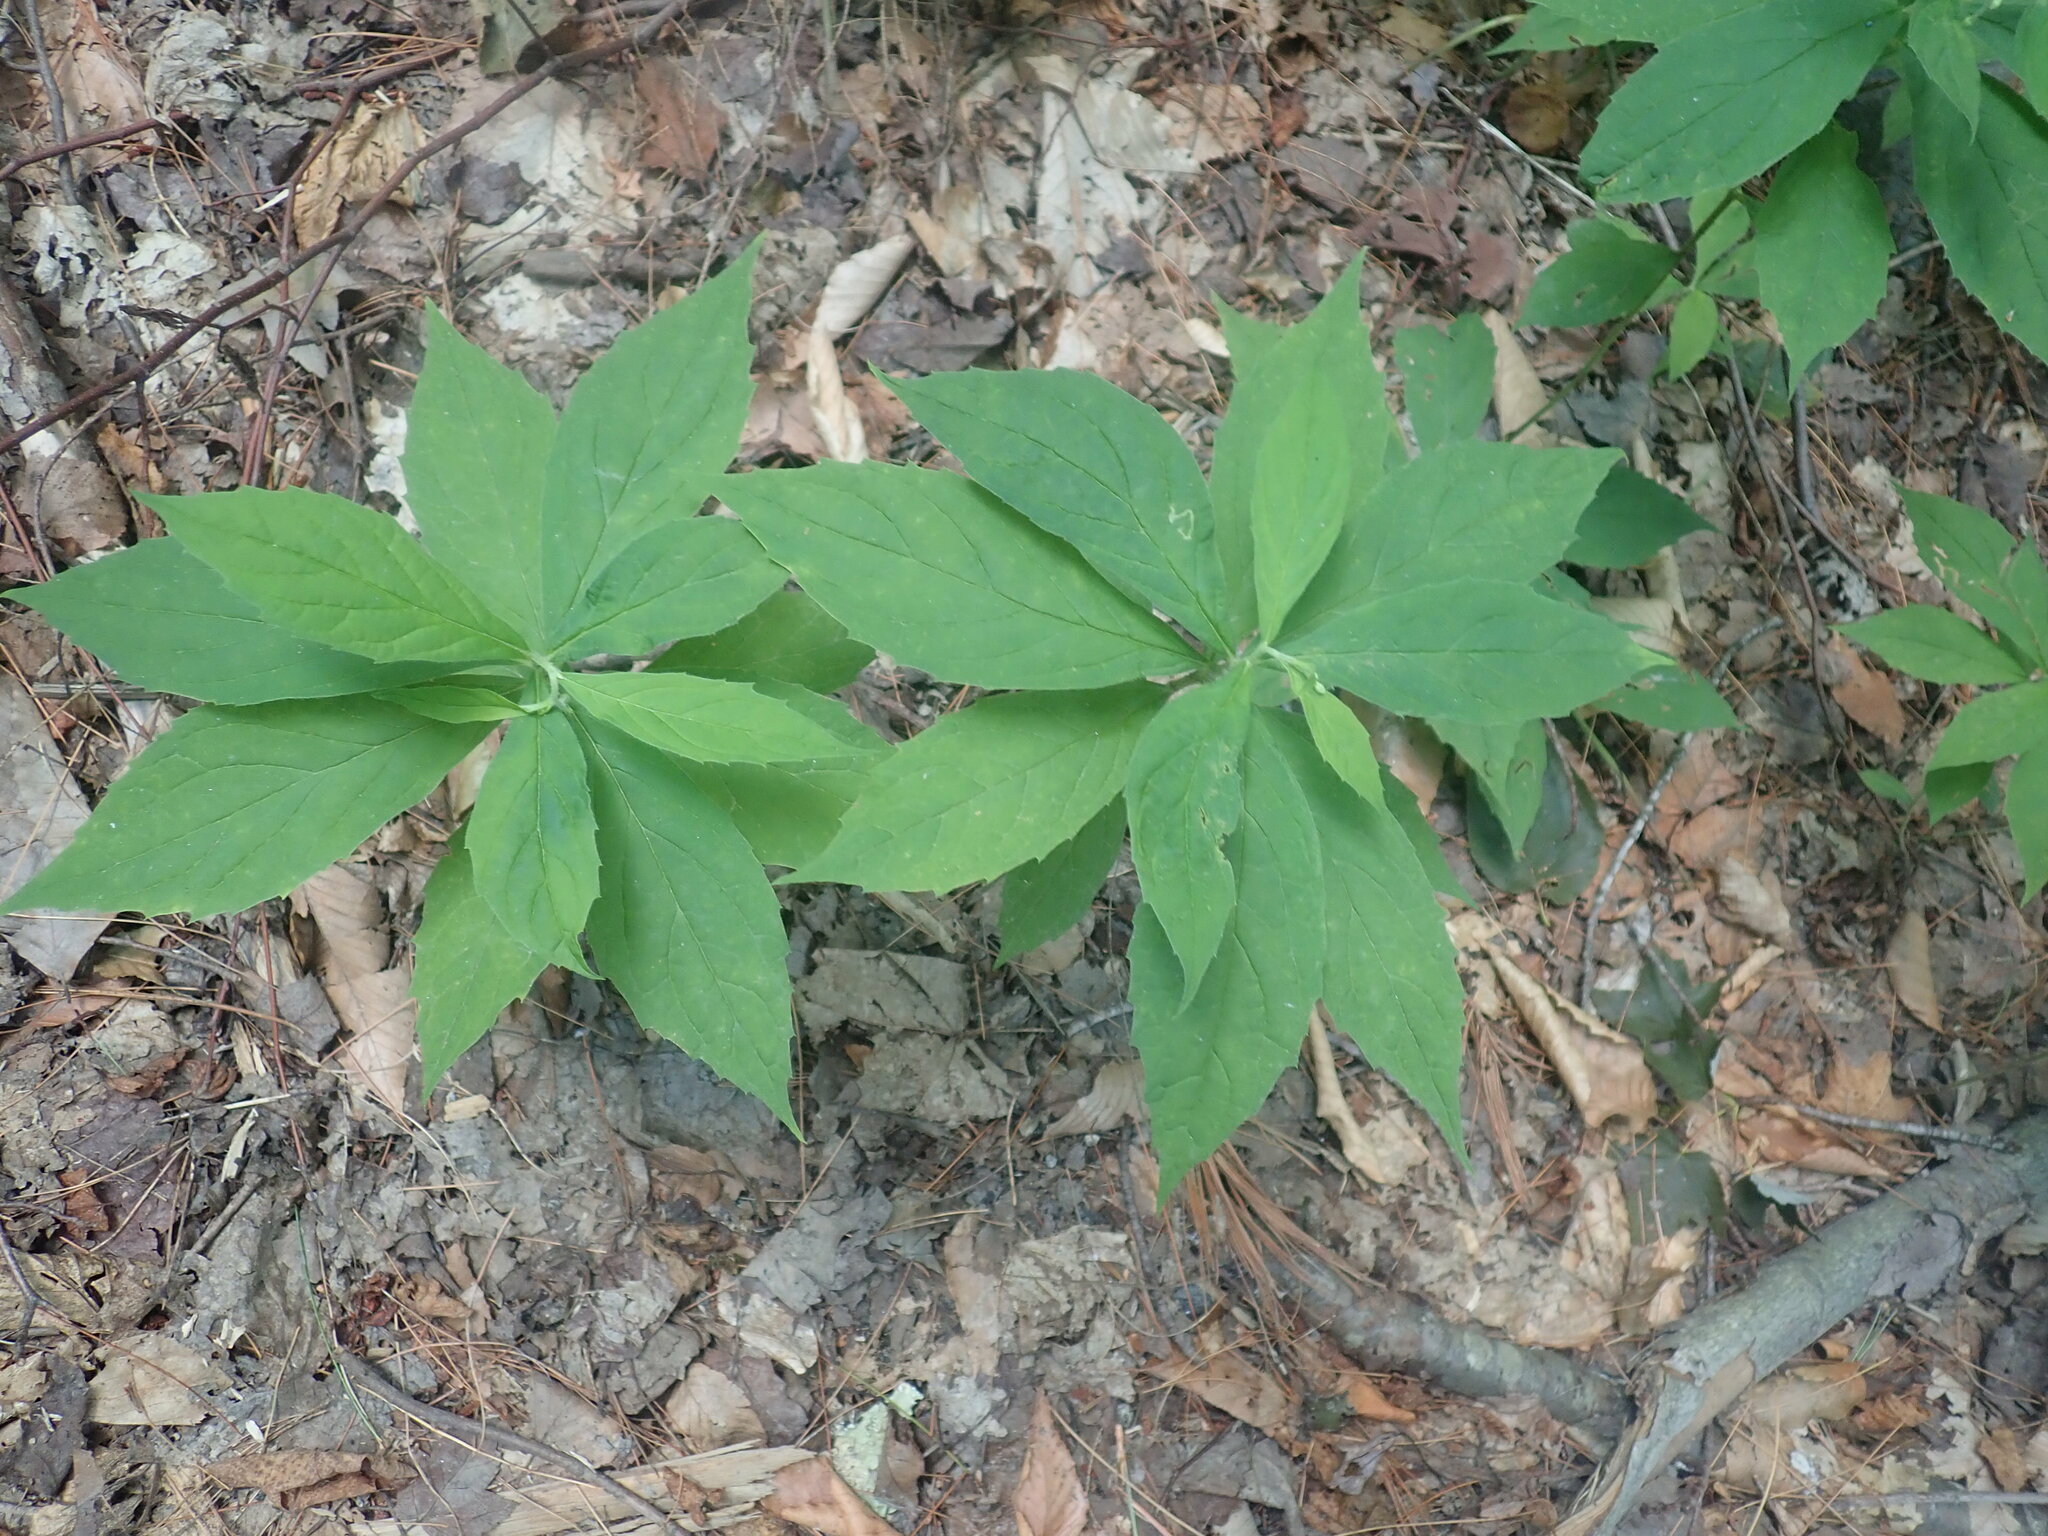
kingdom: Plantae
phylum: Tracheophyta
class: Magnoliopsida
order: Asterales
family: Asteraceae
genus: Oclemena
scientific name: Oclemena acuminata
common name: Mountain aster
